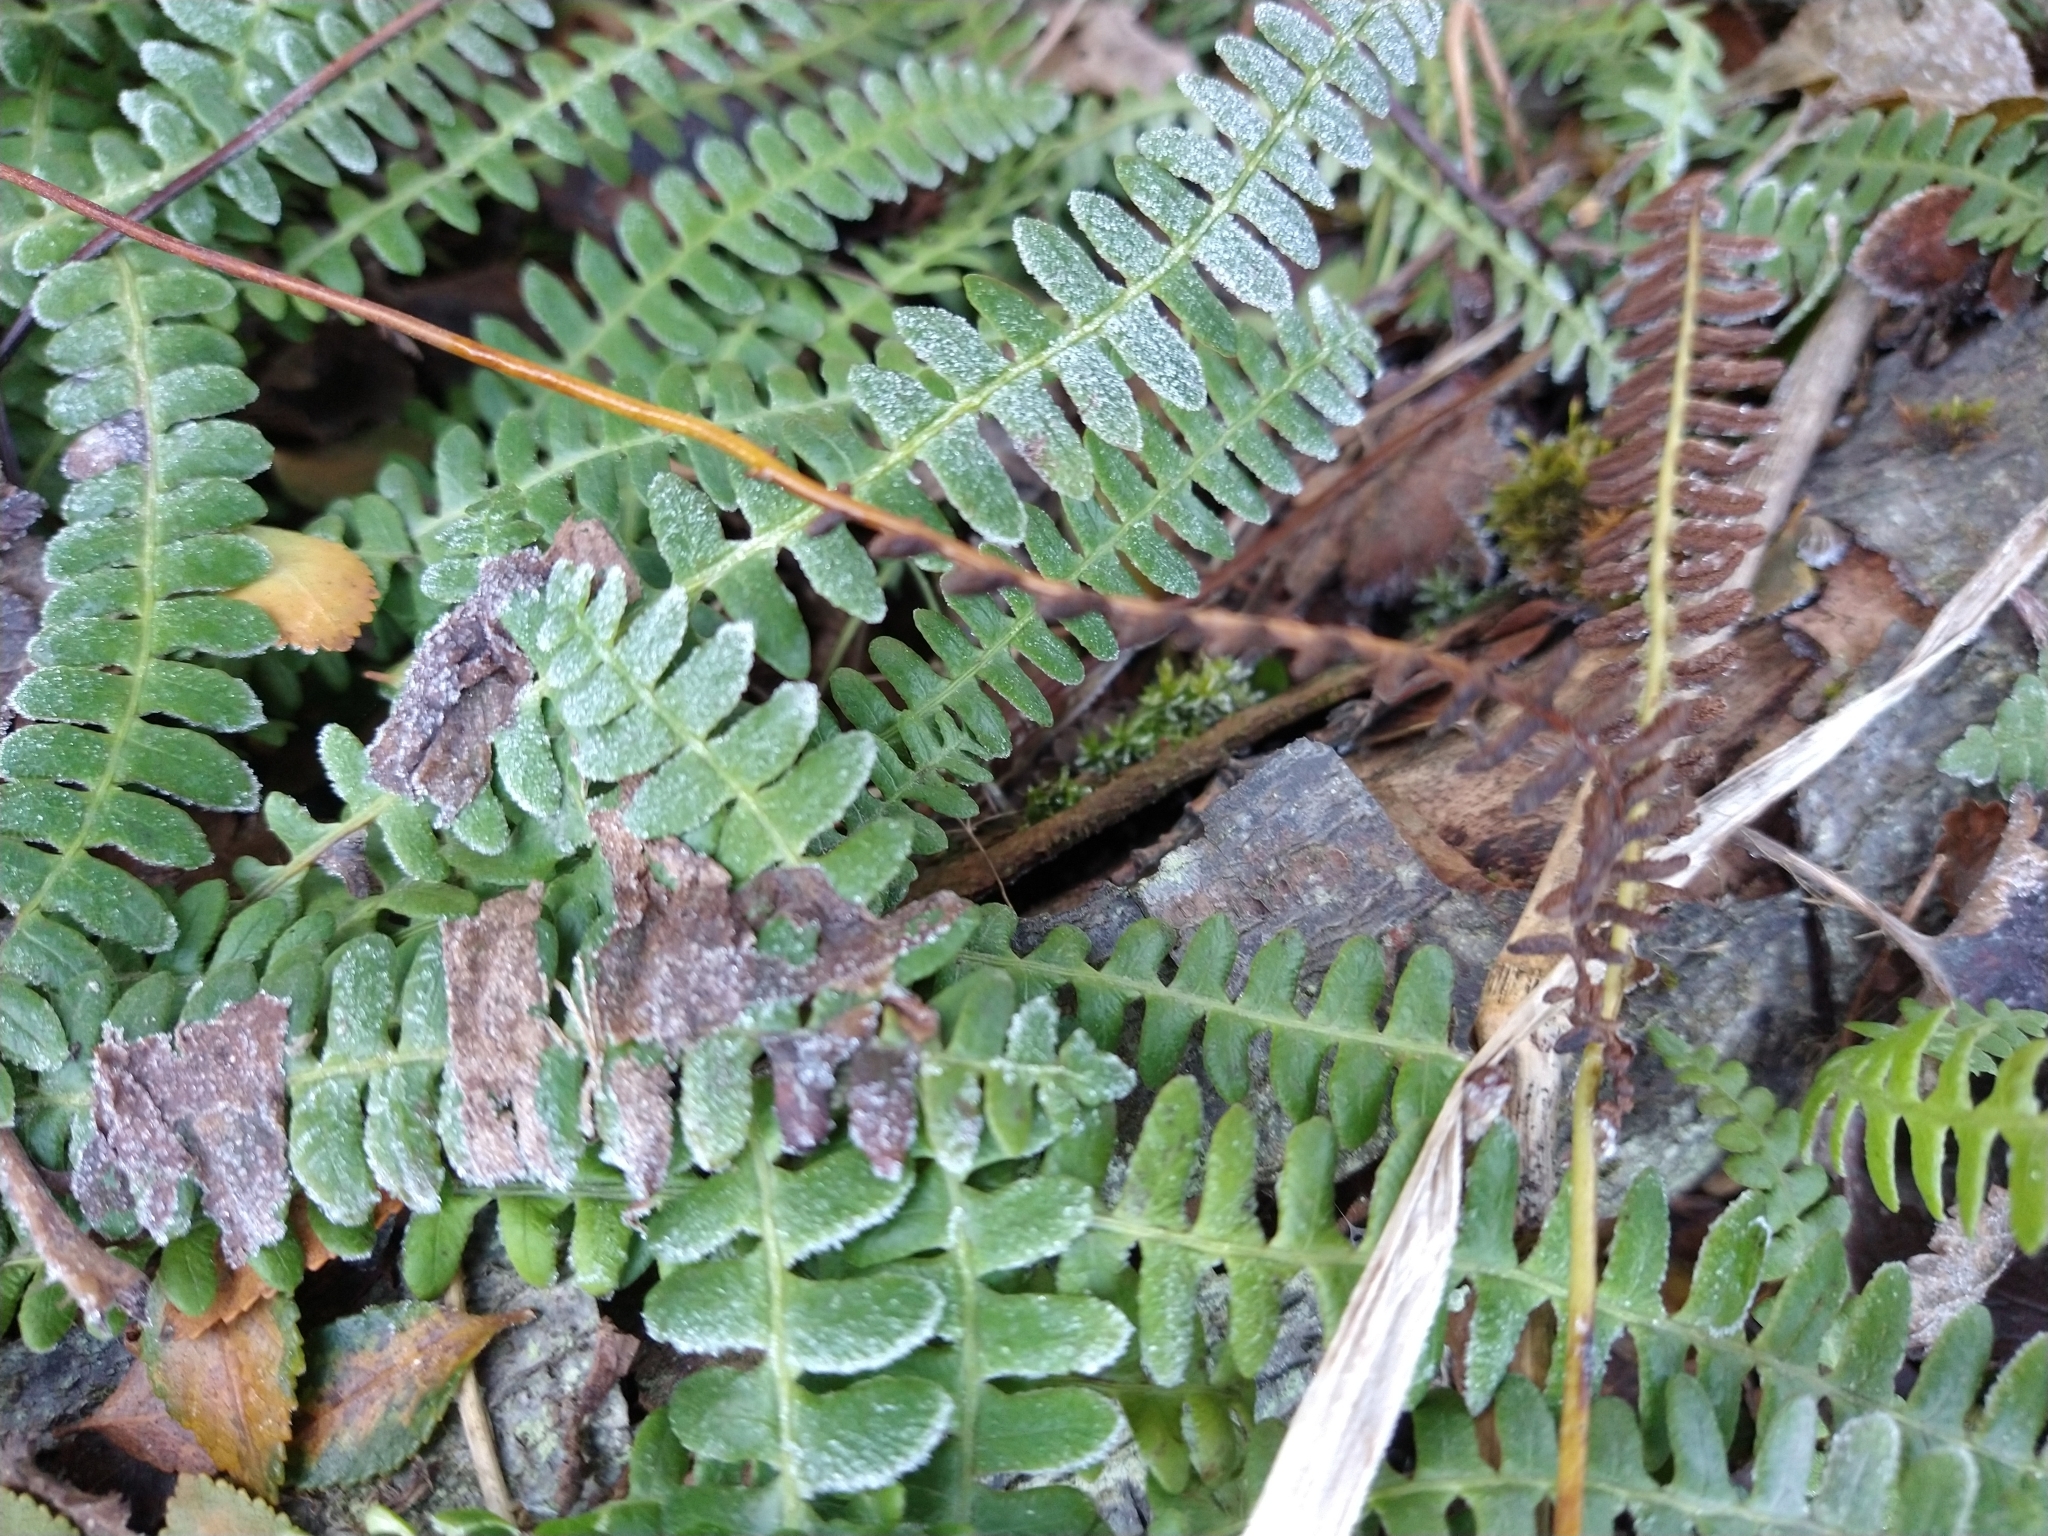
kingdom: Plantae
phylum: Tracheophyta
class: Polypodiopsida
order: Polypodiales
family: Blechnaceae
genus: Austroblechnum
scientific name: Austroblechnum penna-marina
